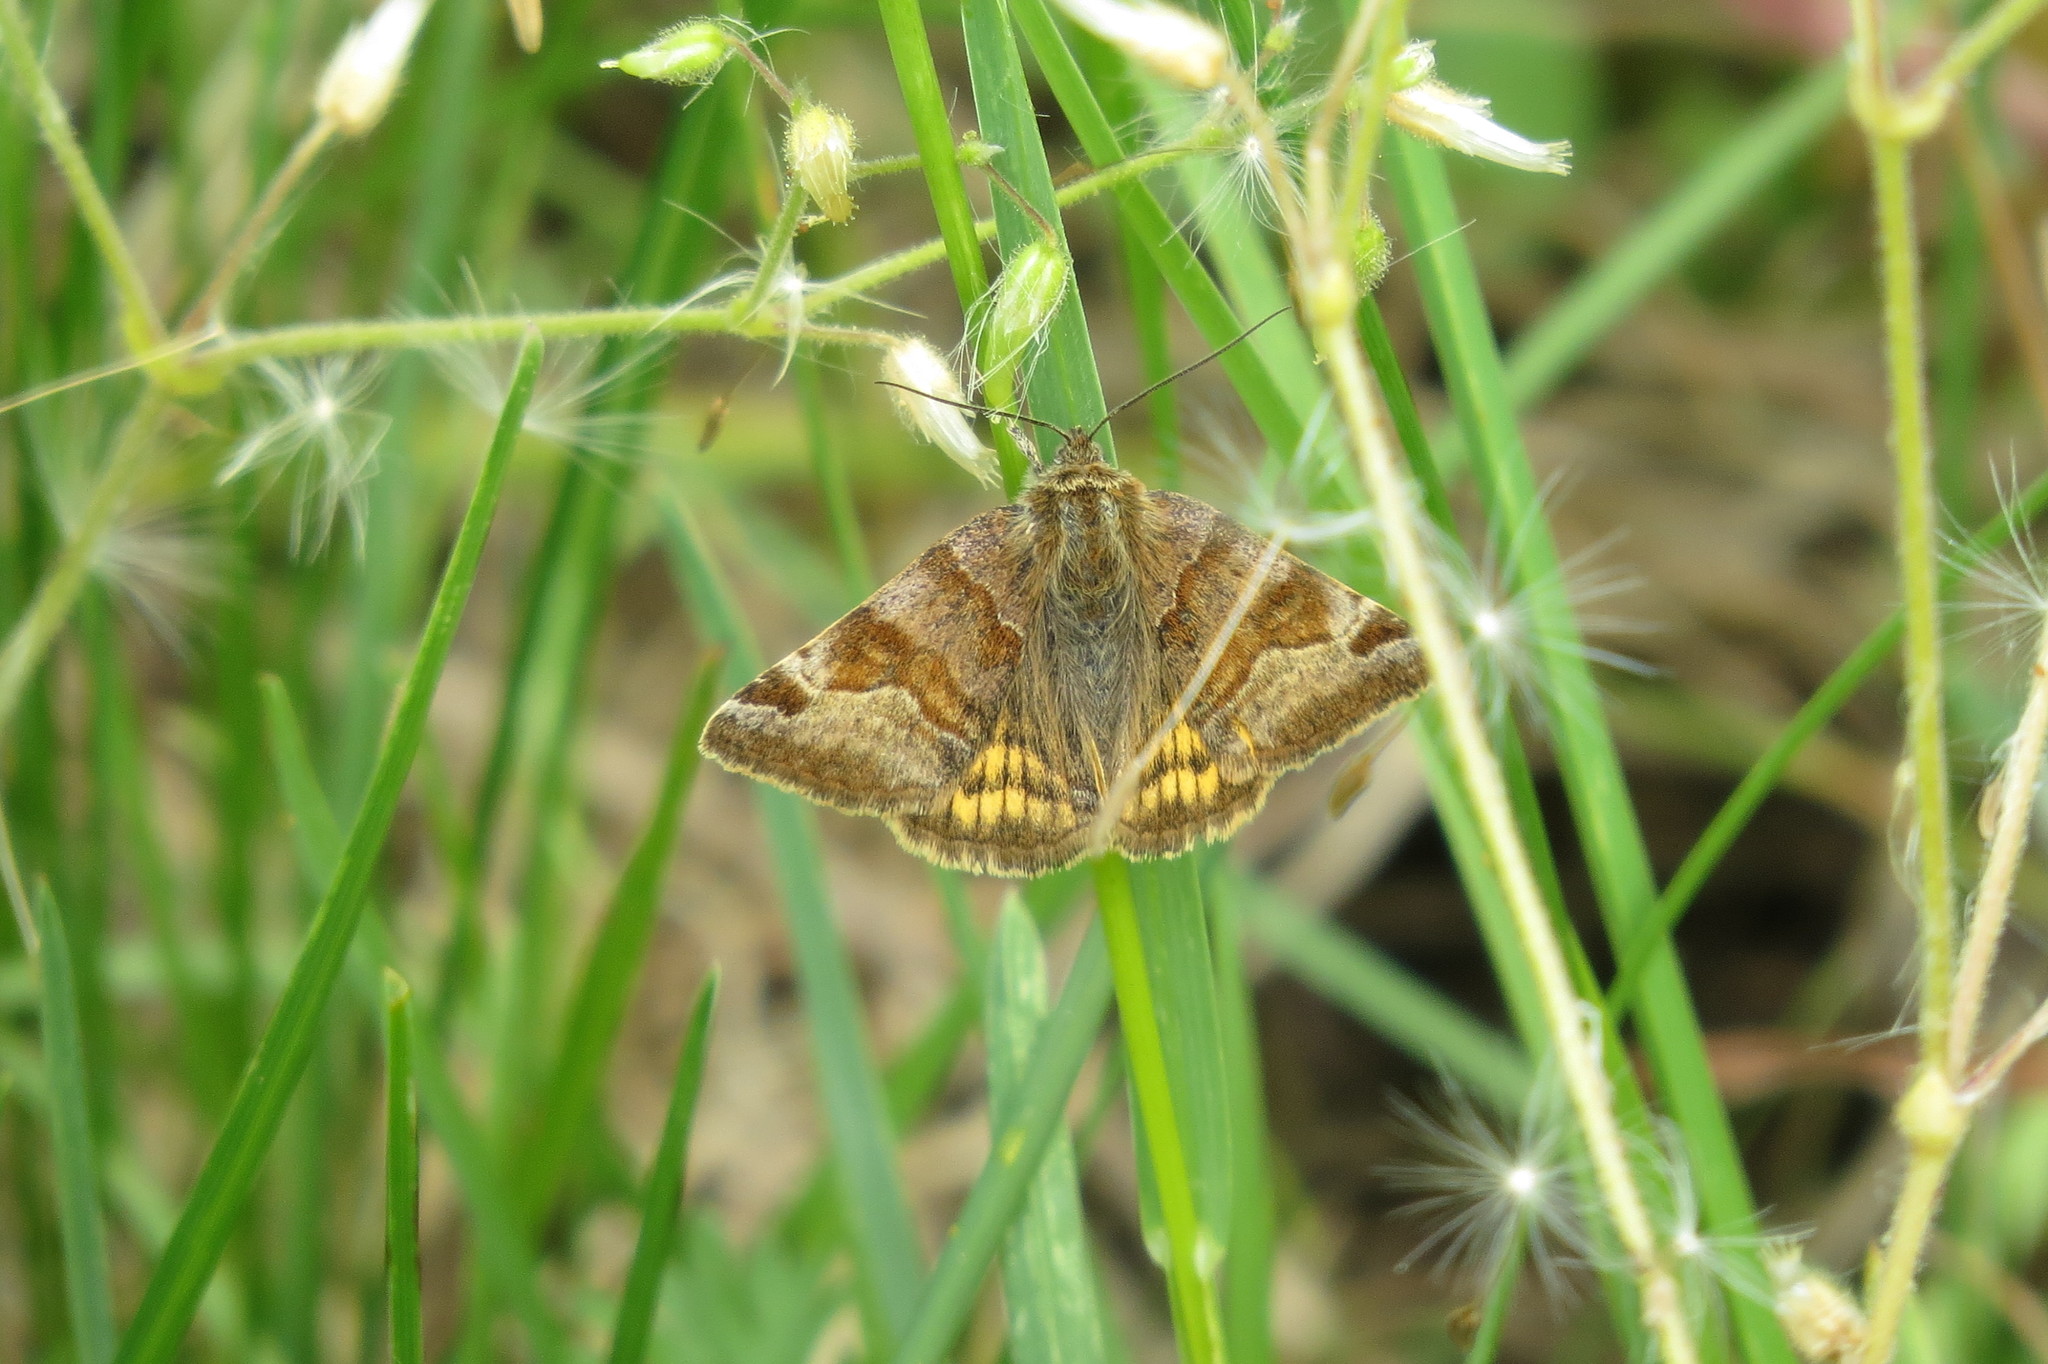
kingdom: Animalia
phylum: Arthropoda
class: Insecta
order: Lepidoptera
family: Erebidae
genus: Euclidia
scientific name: Euclidia glyphica
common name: Burnet companion
